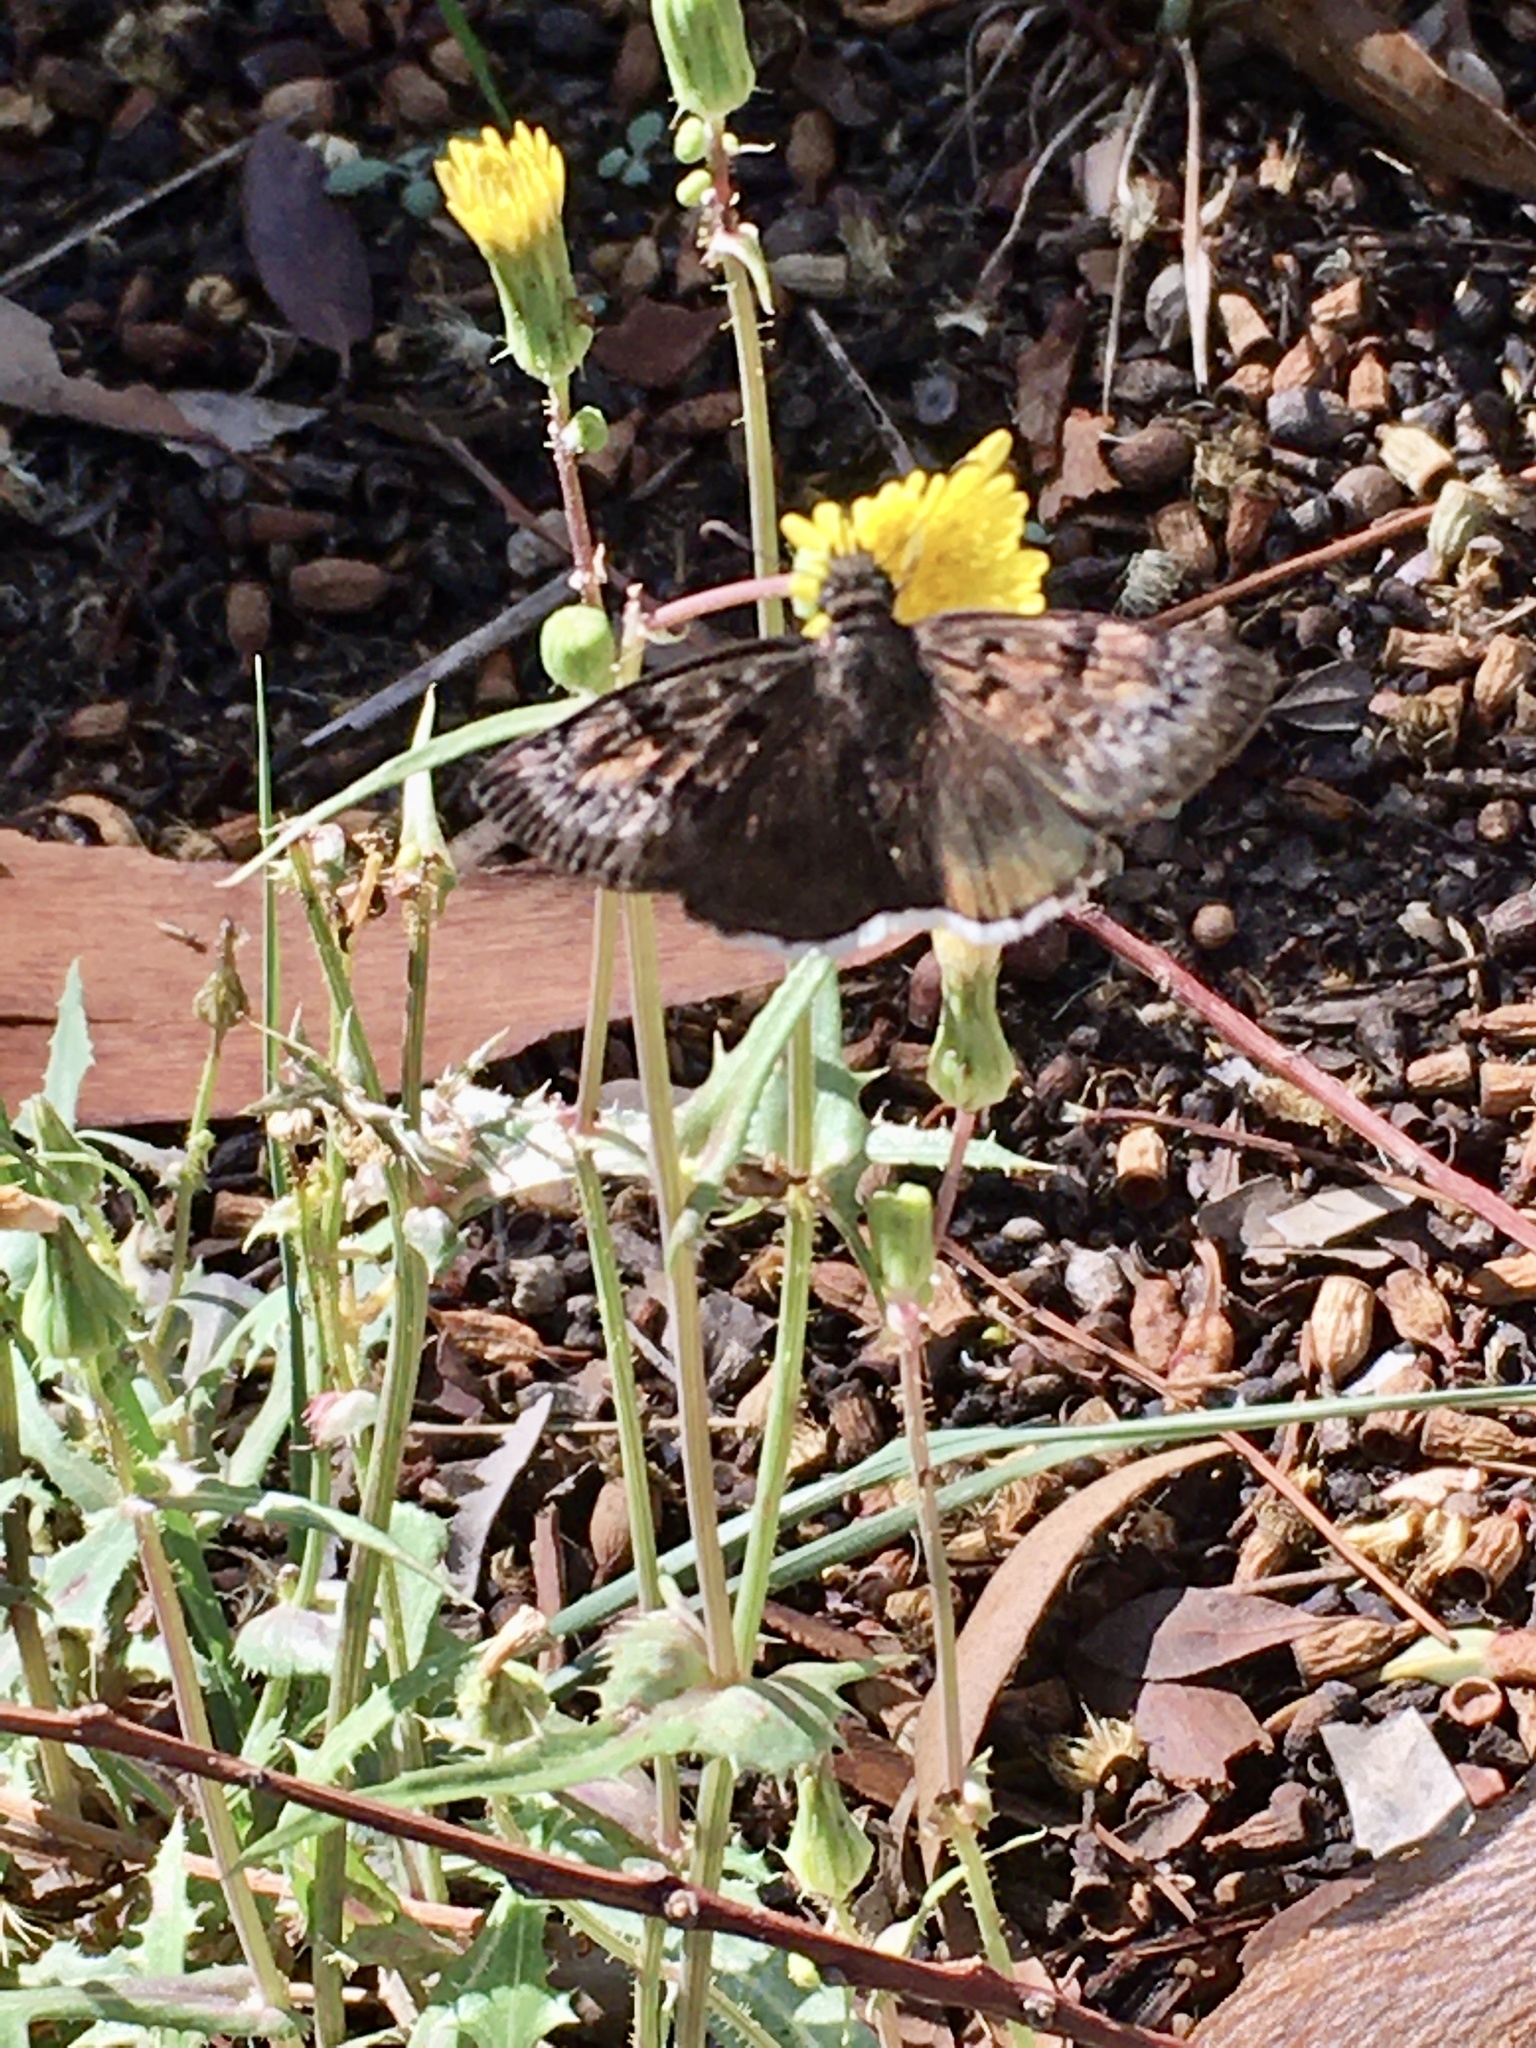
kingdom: Animalia
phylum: Arthropoda
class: Insecta
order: Lepidoptera
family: Hesperiidae
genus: Erynnis
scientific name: Erynnis tristis
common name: Mournful duskywing
